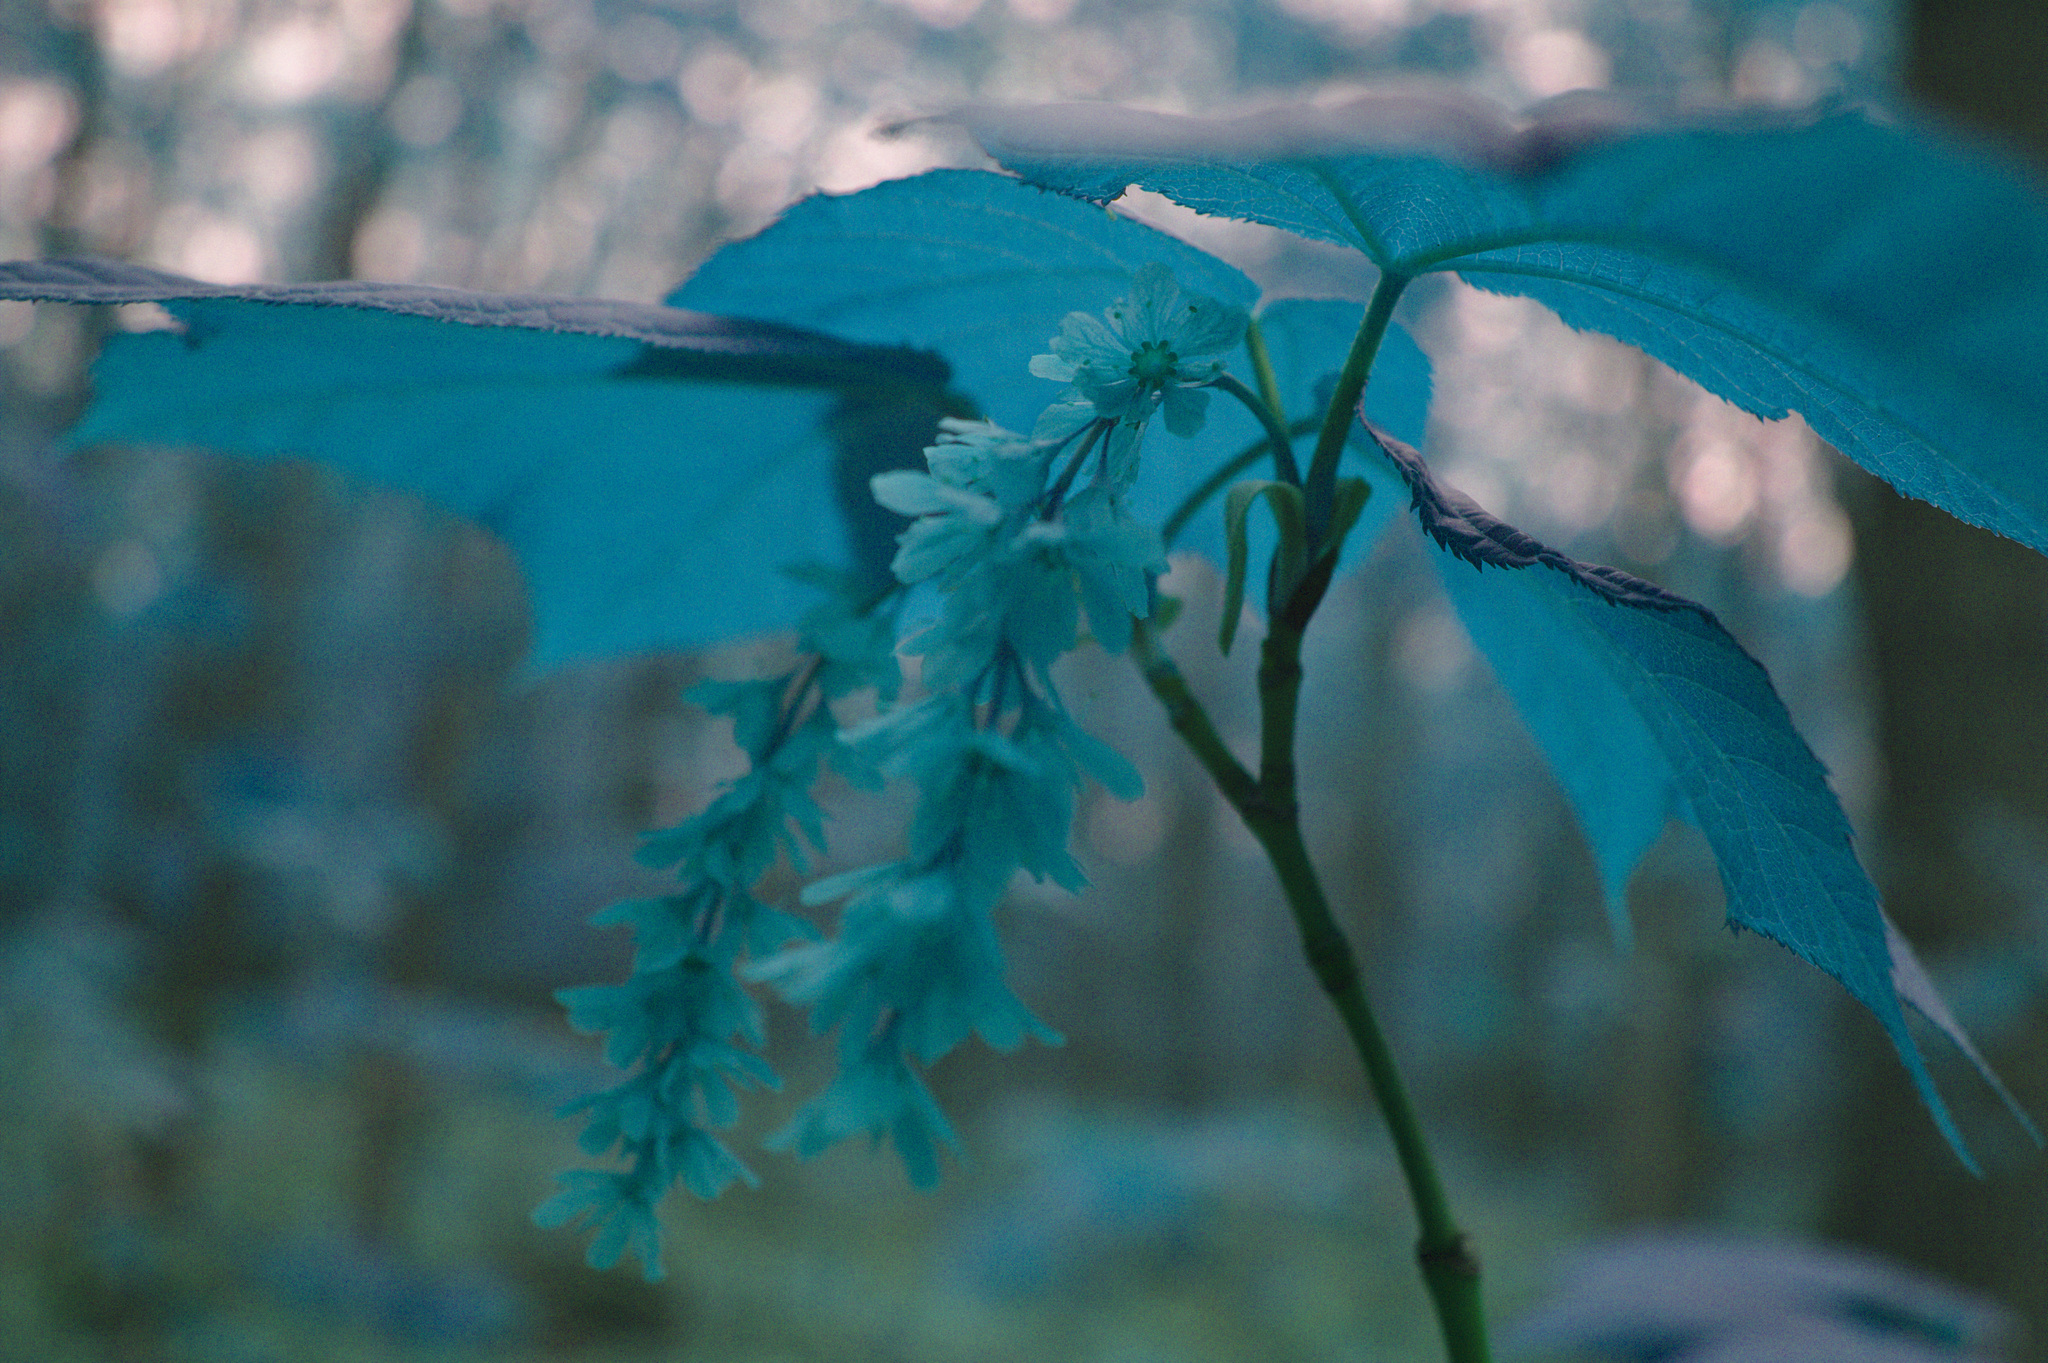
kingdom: Plantae
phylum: Tracheophyta
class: Magnoliopsida
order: Sapindales
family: Sapindaceae
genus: Acer
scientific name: Acer pensylvanicum
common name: Moosewood
